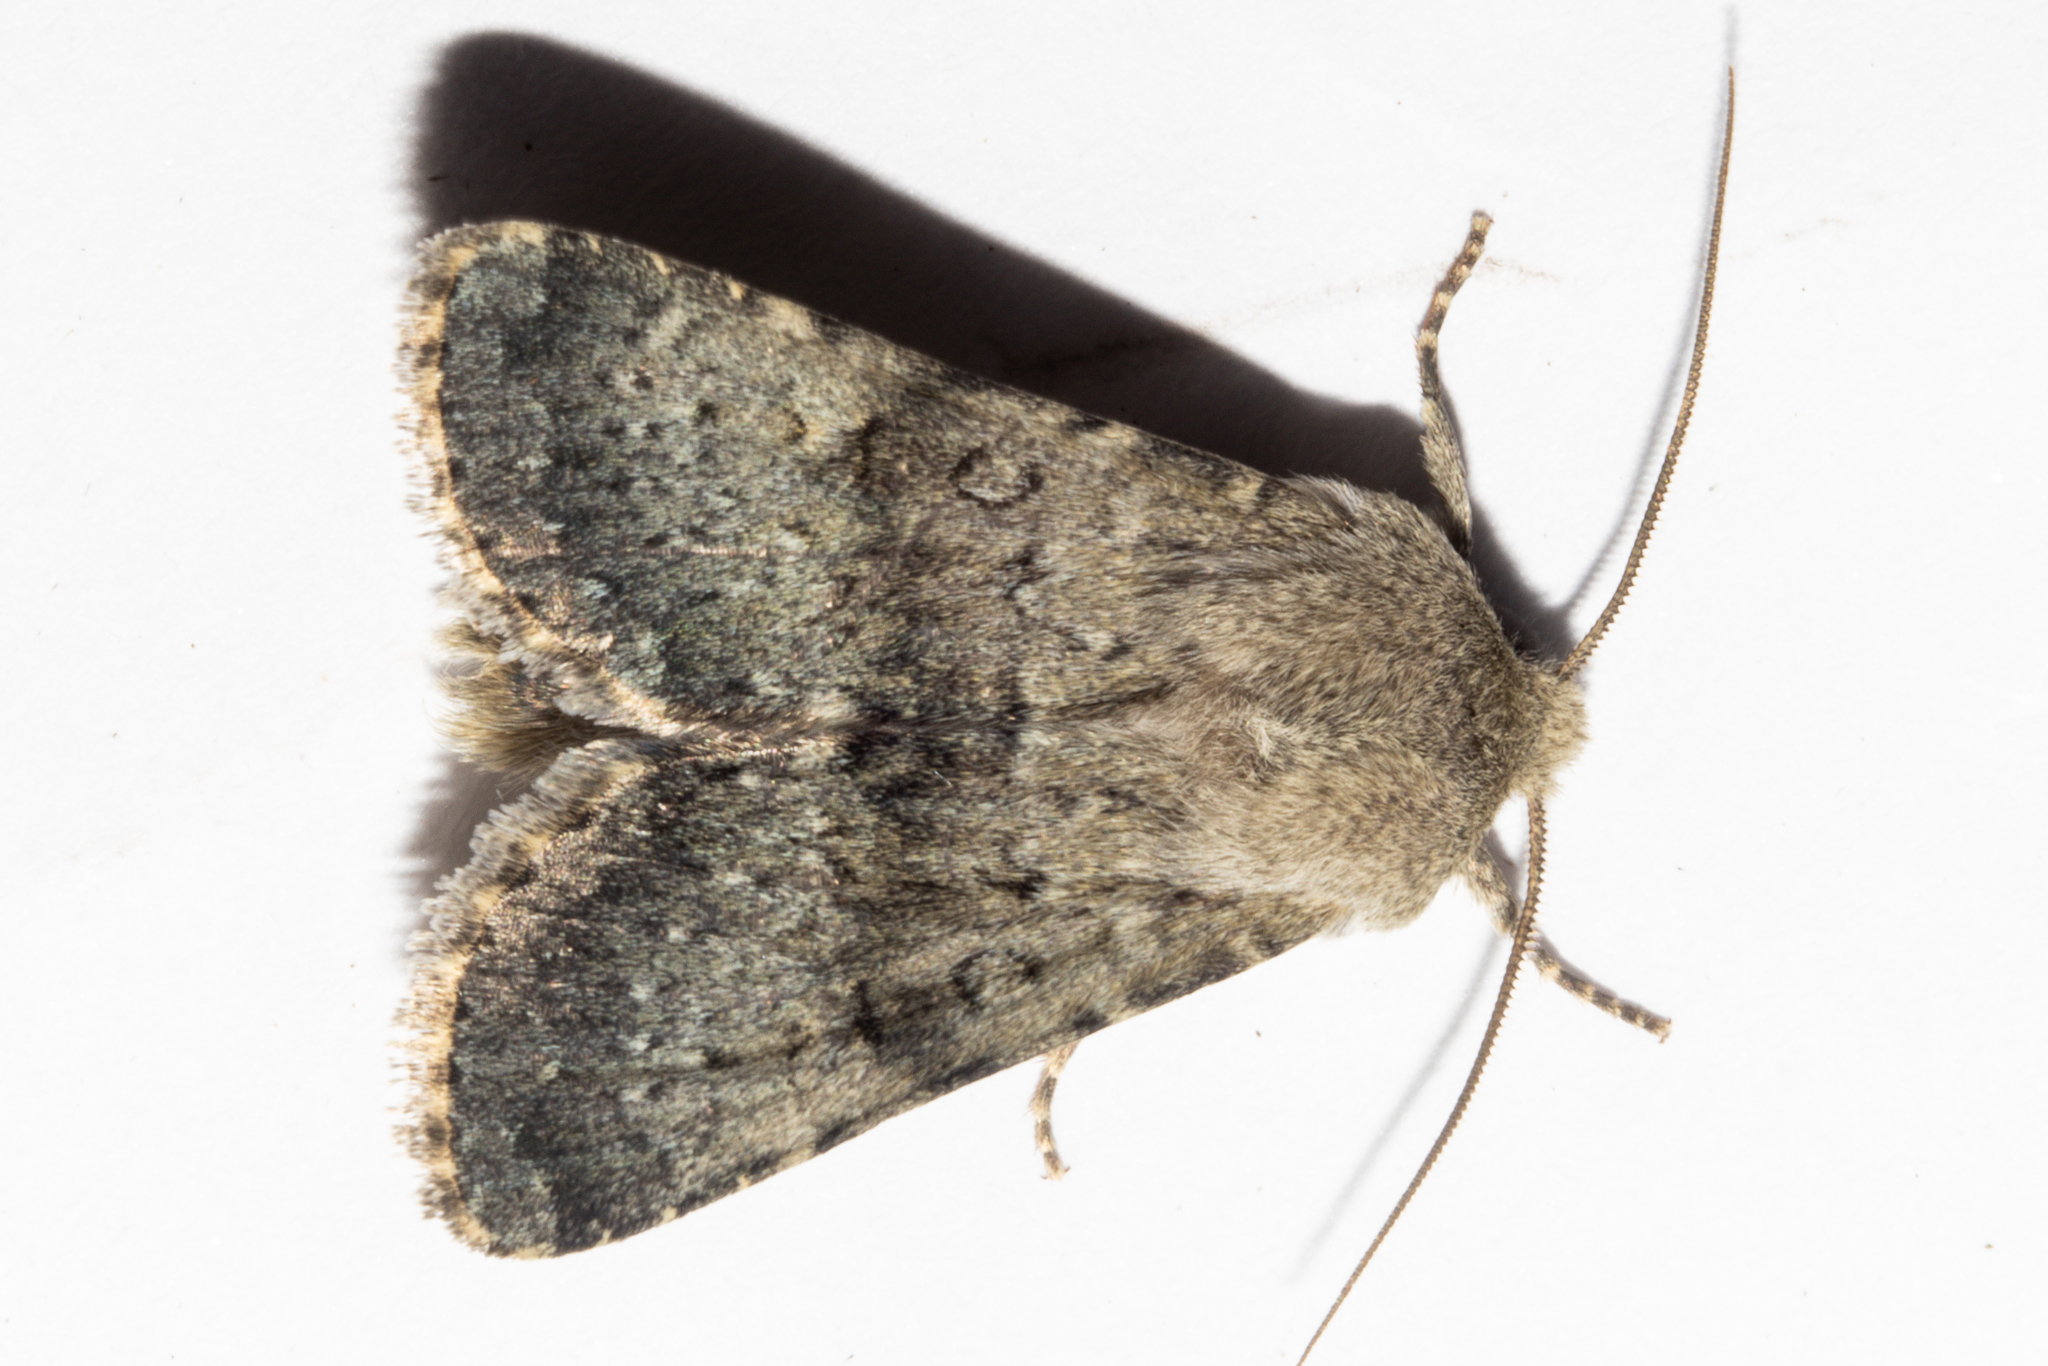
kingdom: Animalia
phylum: Arthropoda
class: Insecta
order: Lepidoptera
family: Noctuidae
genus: Ichneutica
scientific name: Ichneutica moderata
